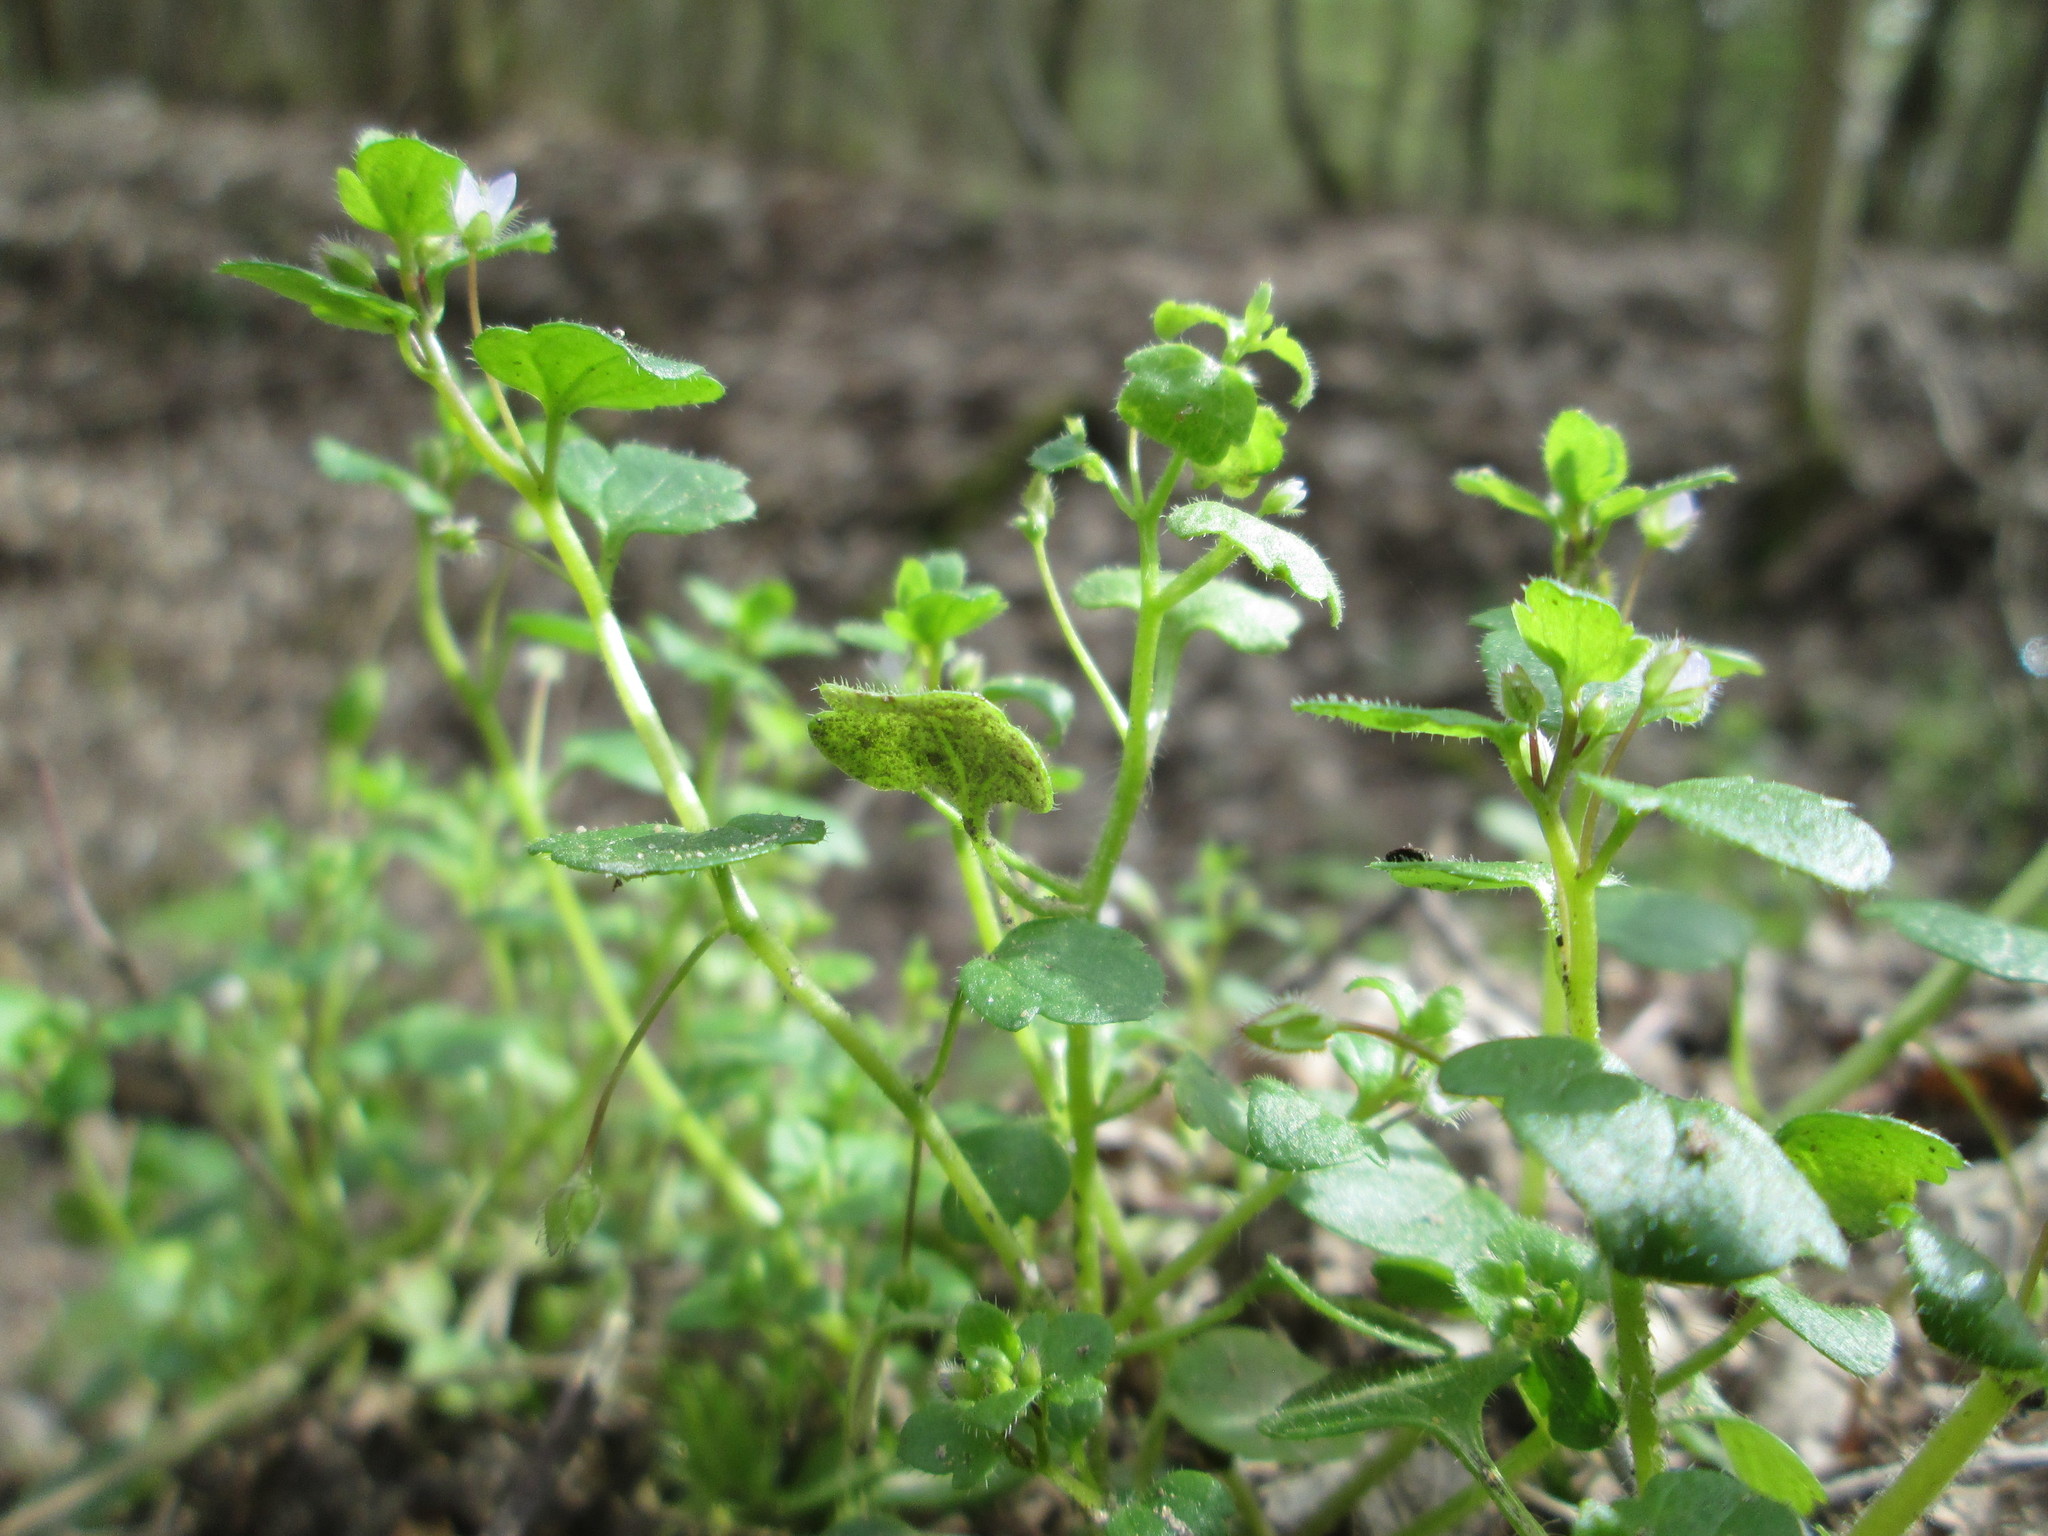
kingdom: Plantae
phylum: Tracheophyta
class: Magnoliopsida
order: Lamiales
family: Plantaginaceae
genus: Veronica
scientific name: Veronica hederifolia
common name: Ivy-leaved speedwell
